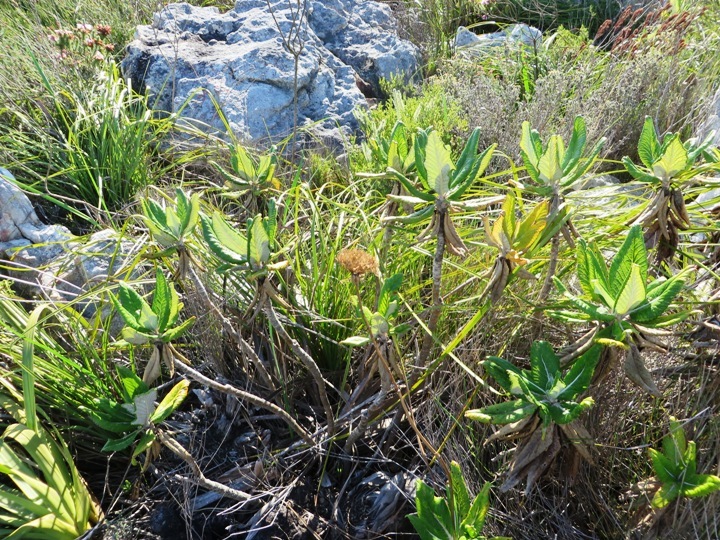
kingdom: Plantae
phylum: Tracheophyta
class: Magnoliopsida
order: Apiales
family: Apiaceae
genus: Hermas
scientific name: Hermas villosa
